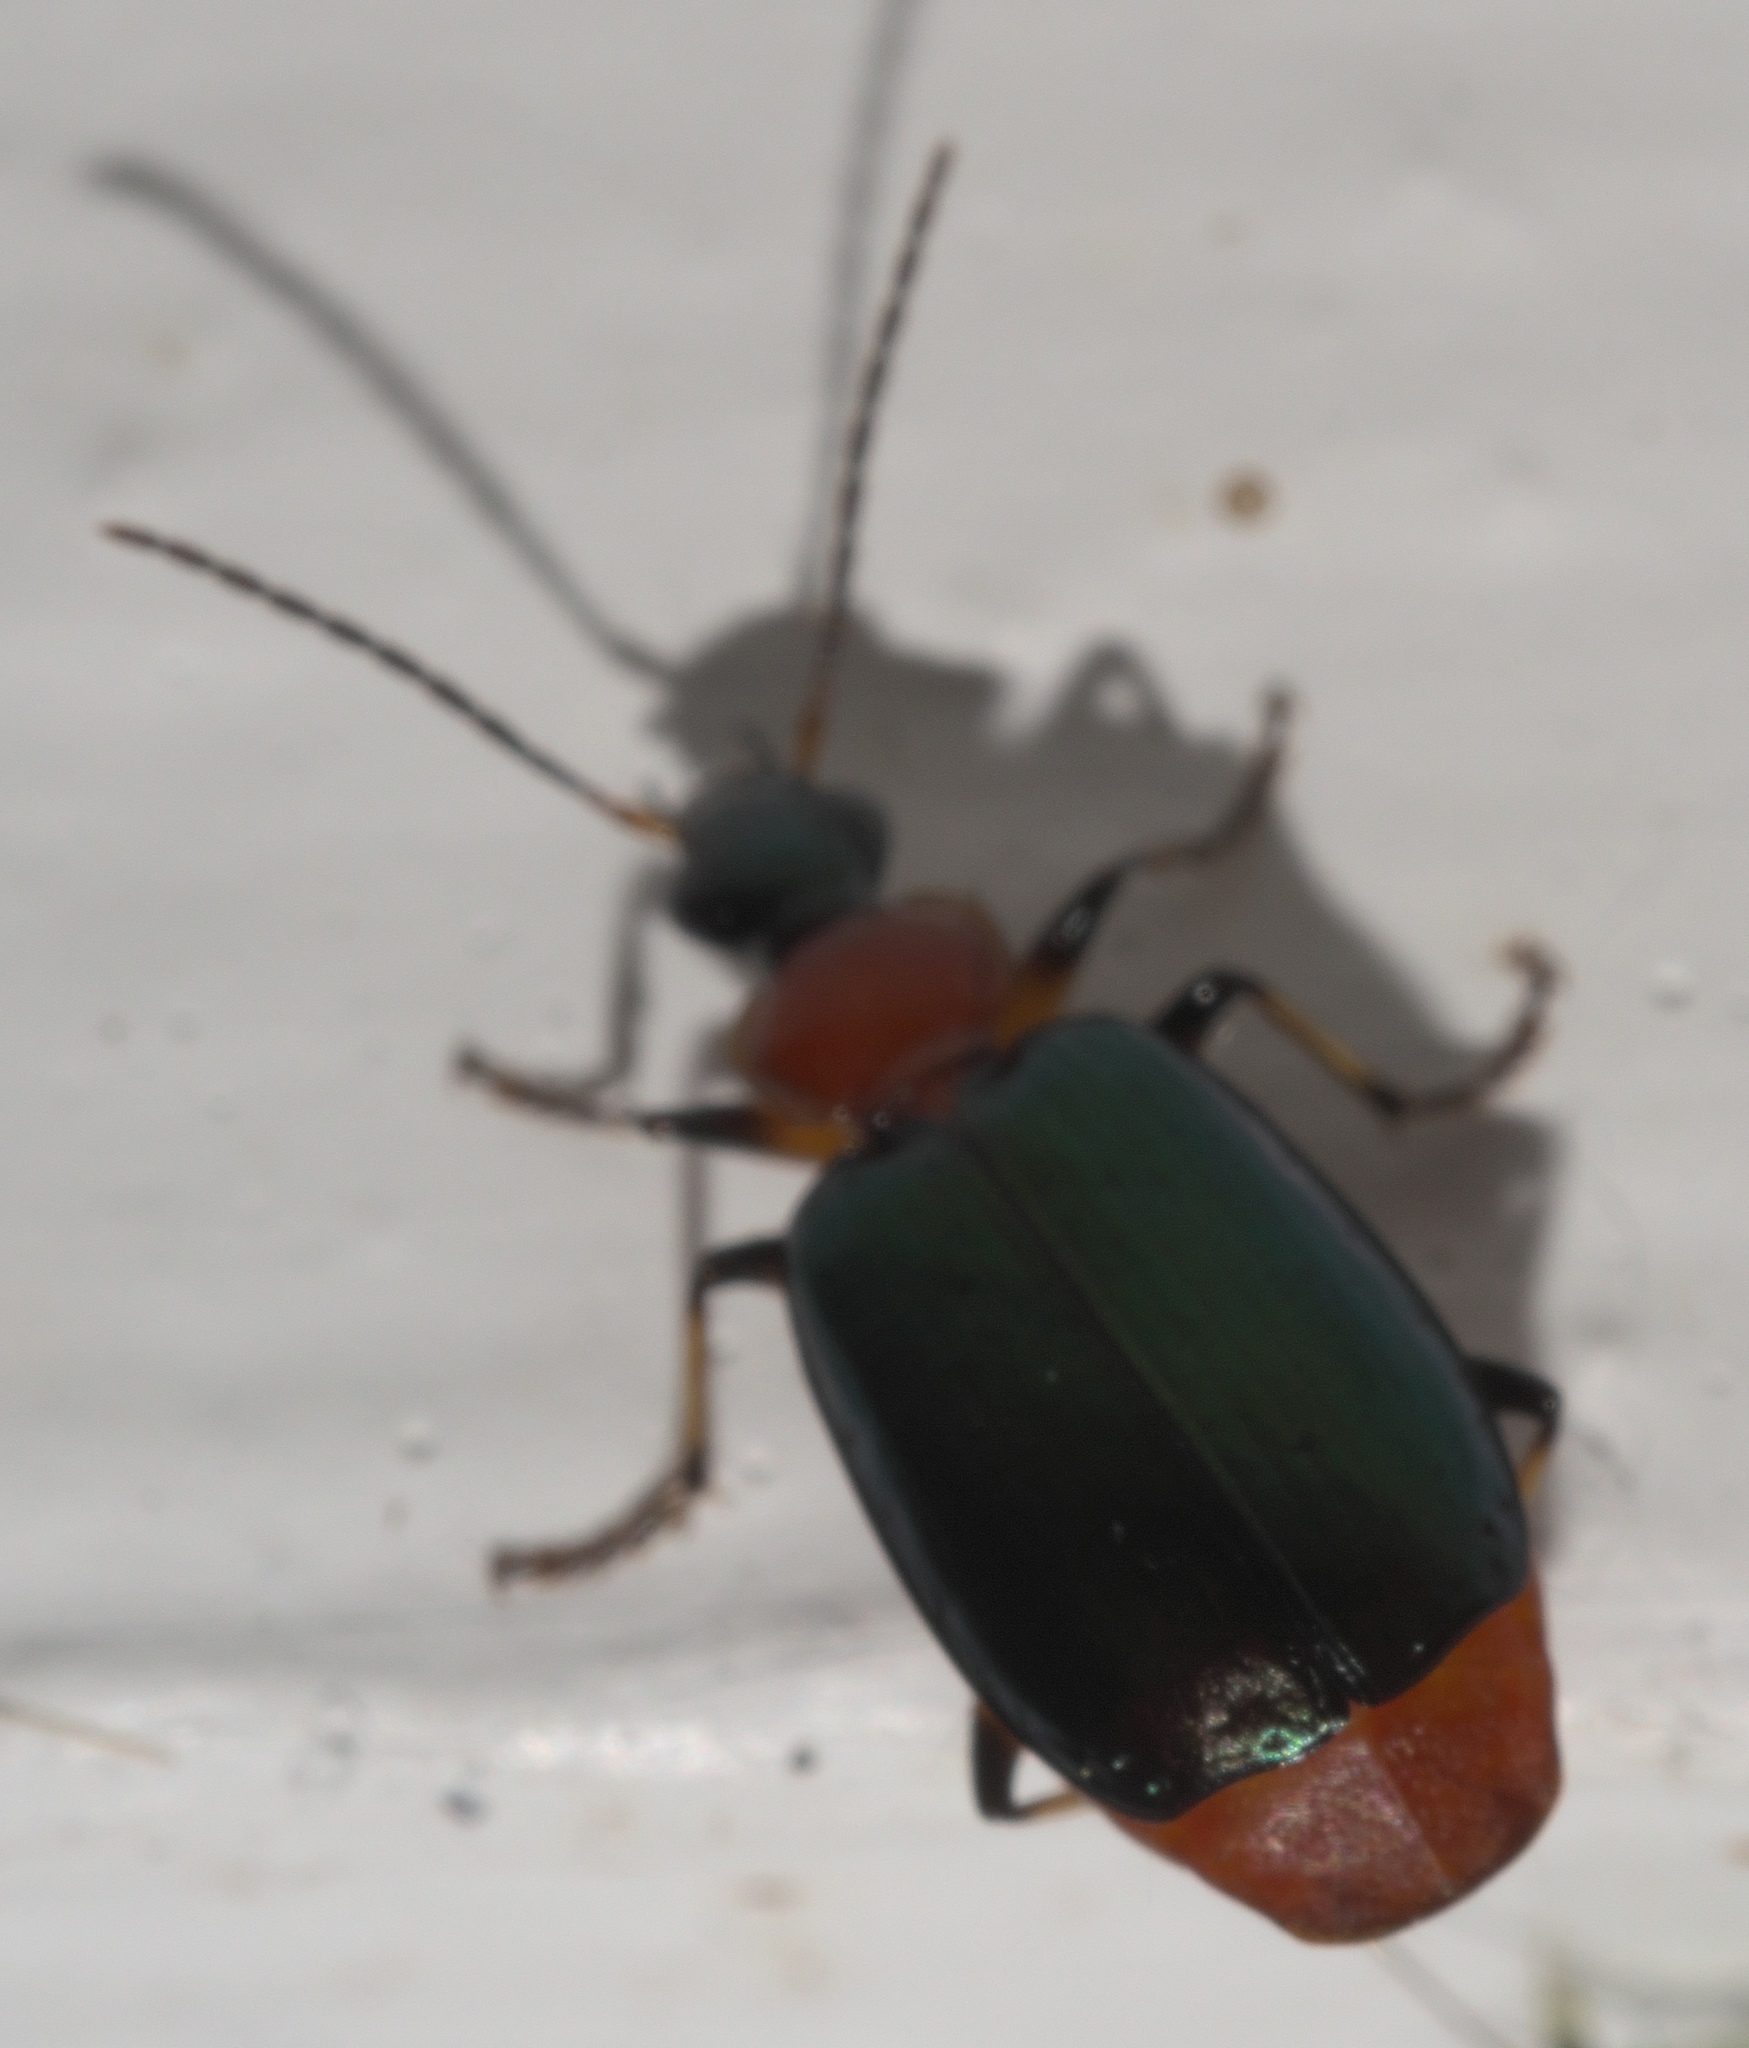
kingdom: Animalia
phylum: Arthropoda
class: Insecta
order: Coleoptera
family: Carabidae
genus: Lebia
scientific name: Lebia viridipennis
